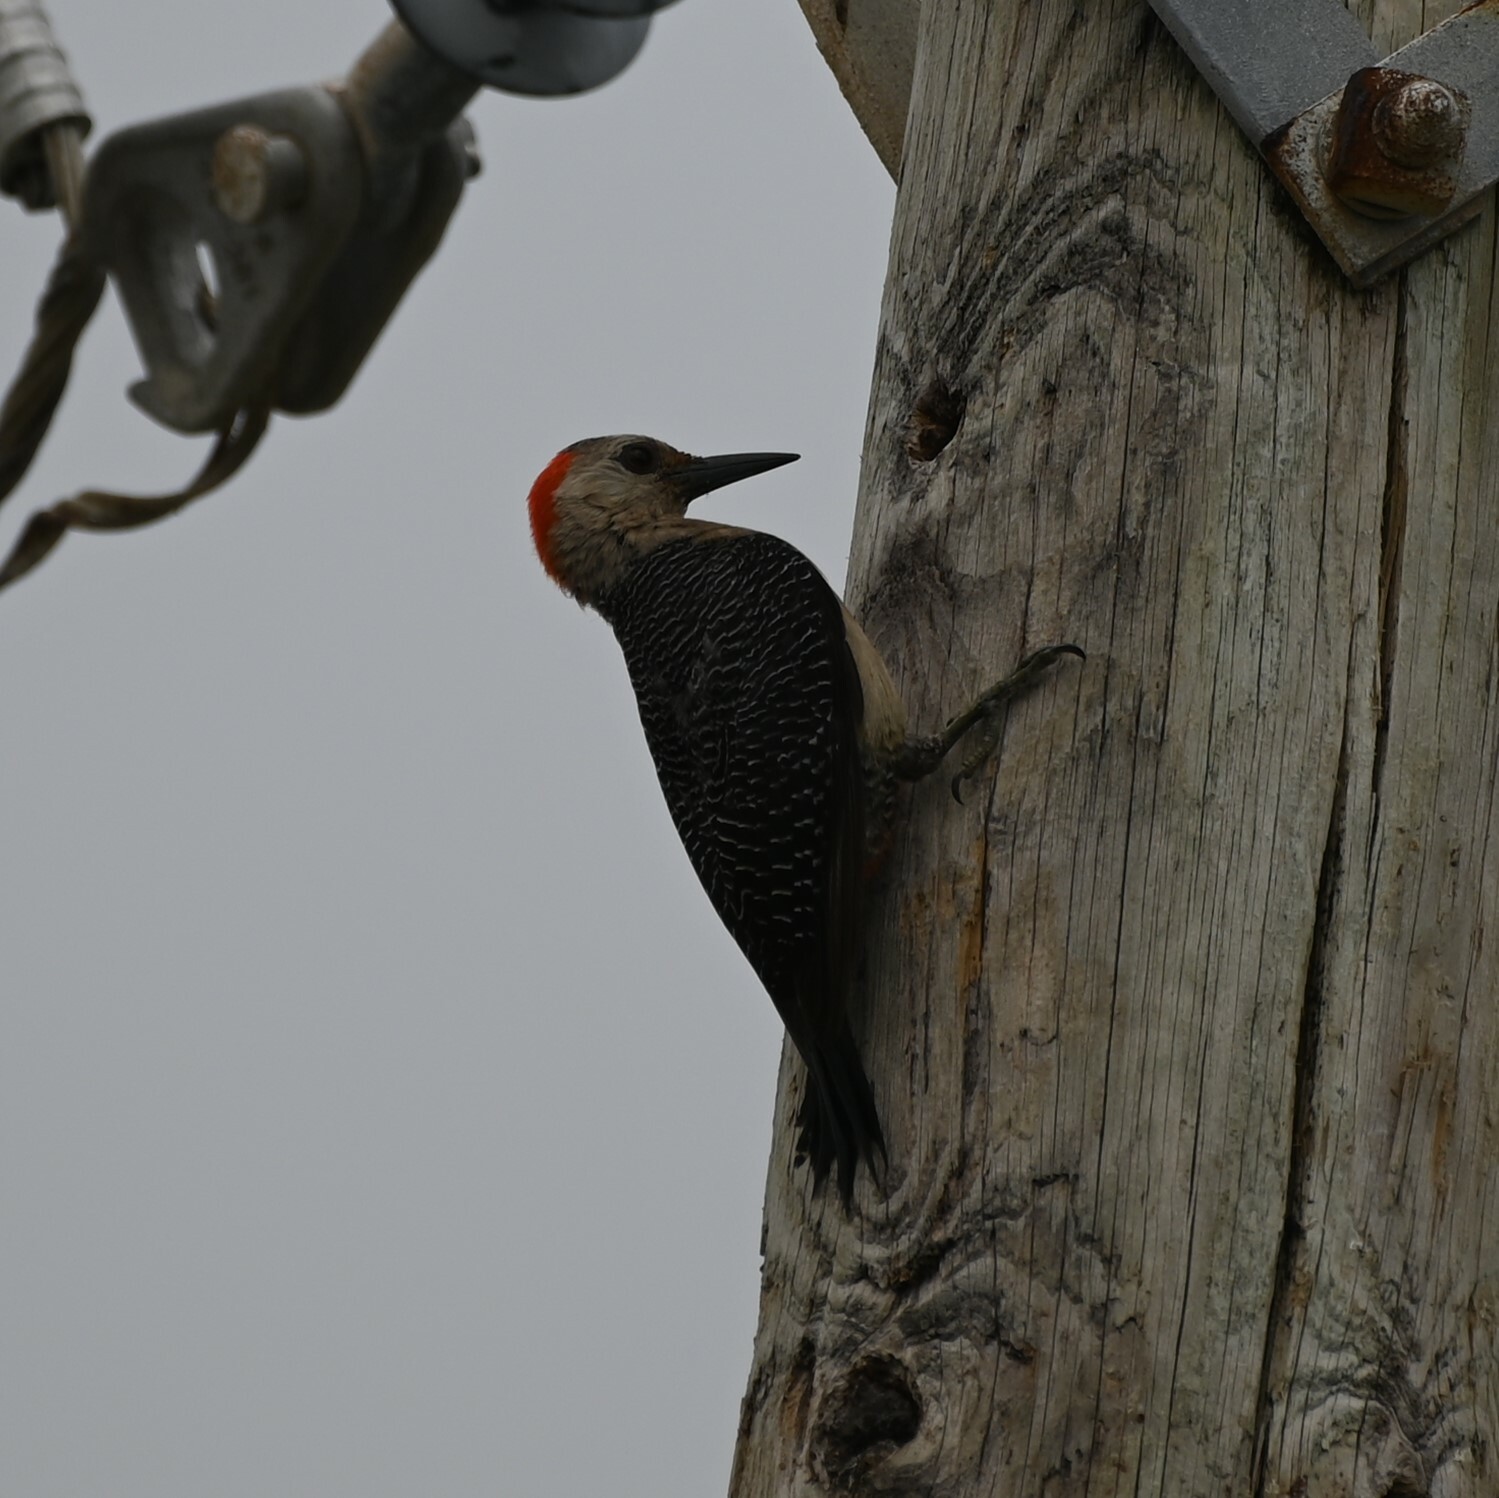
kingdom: Animalia
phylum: Chordata
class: Aves
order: Piciformes
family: Picidae
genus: Melanerpes
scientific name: Melanerpes aurifrons
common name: Golden-fronted woodpecker
